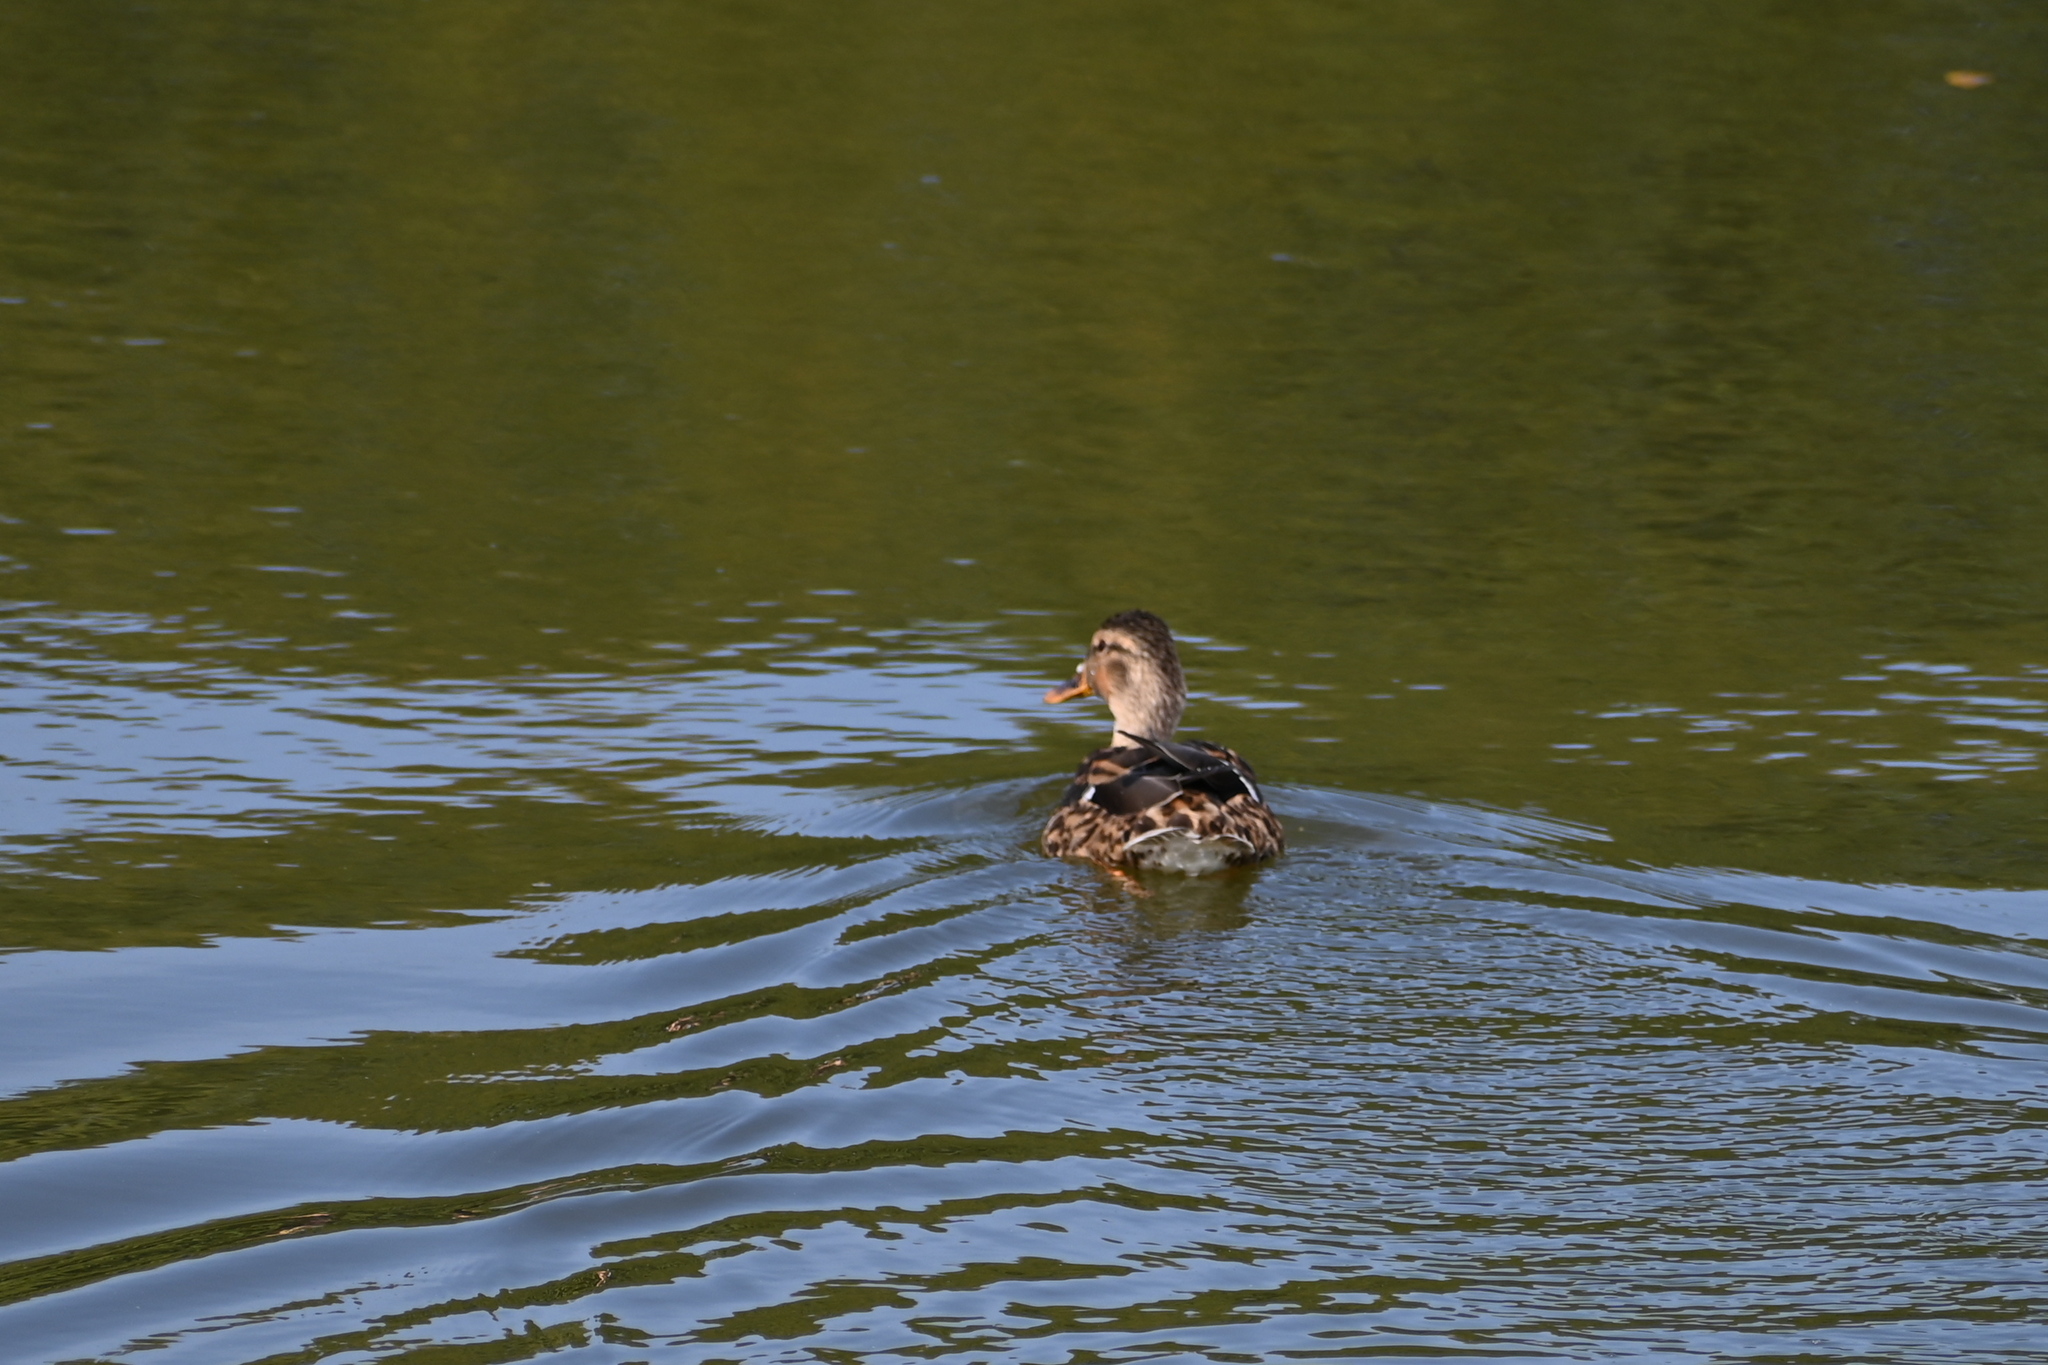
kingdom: Animalia
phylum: Chordata
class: Aves
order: Anseriformes
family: Anatidae
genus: Anas
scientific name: Anas platyrhynchos
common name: Mallard
